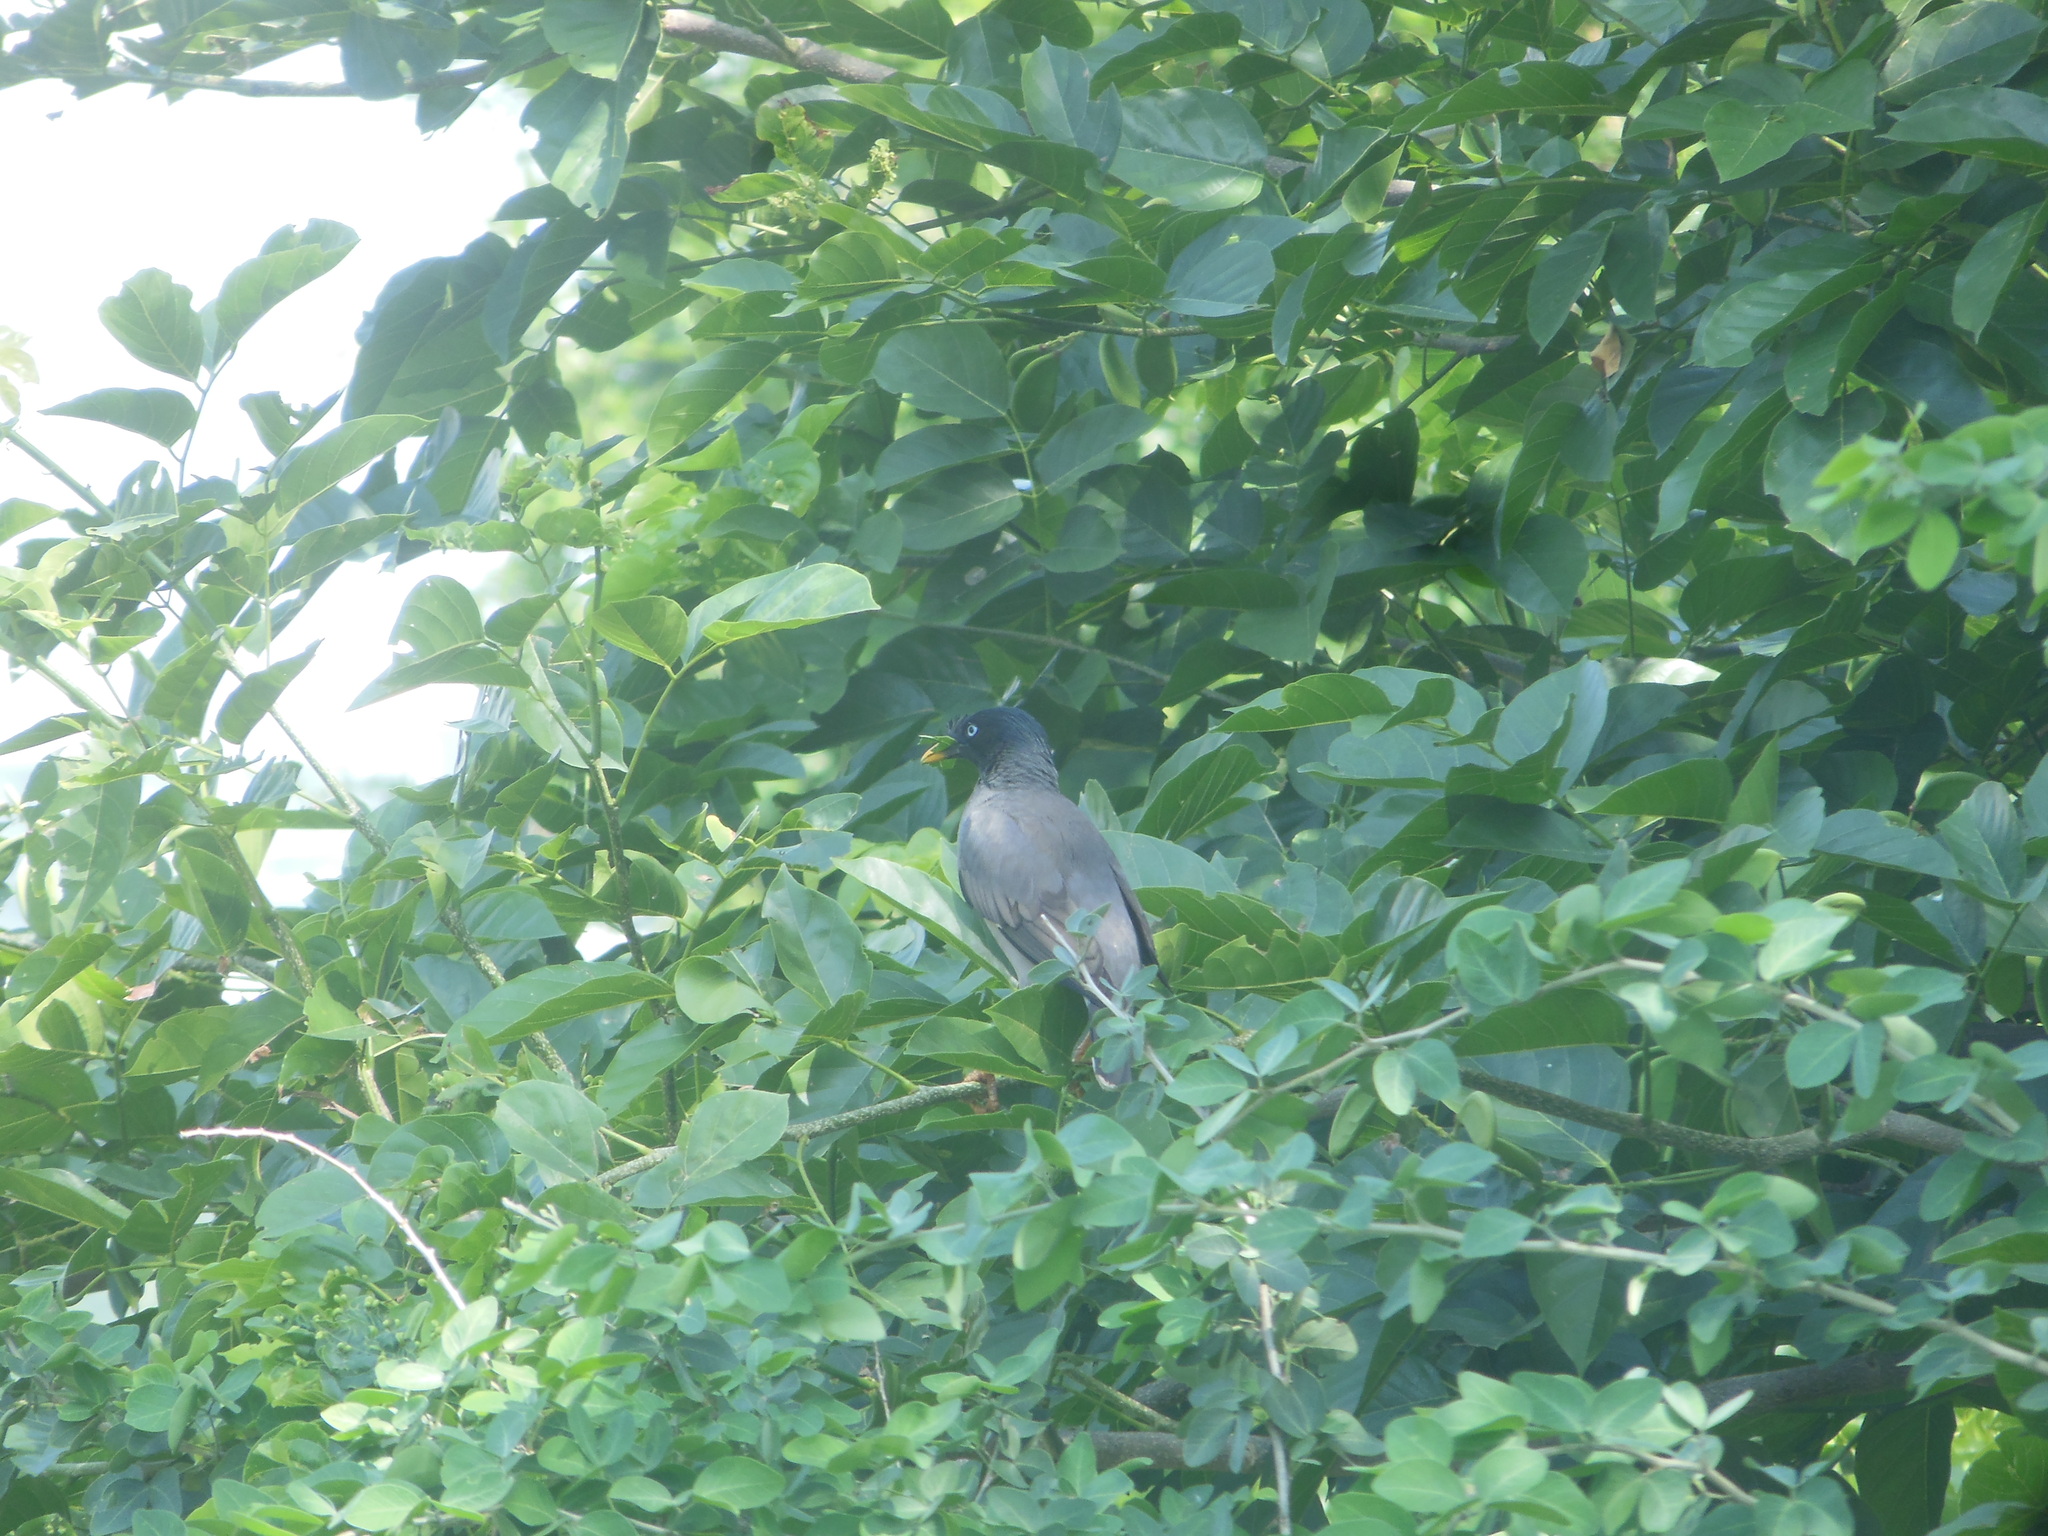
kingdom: Animalia
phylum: Chordata
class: Aves
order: Passeriformes
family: Sturnidae
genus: Acridotheres
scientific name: Acridotheres fuscus
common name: Jungle myna
